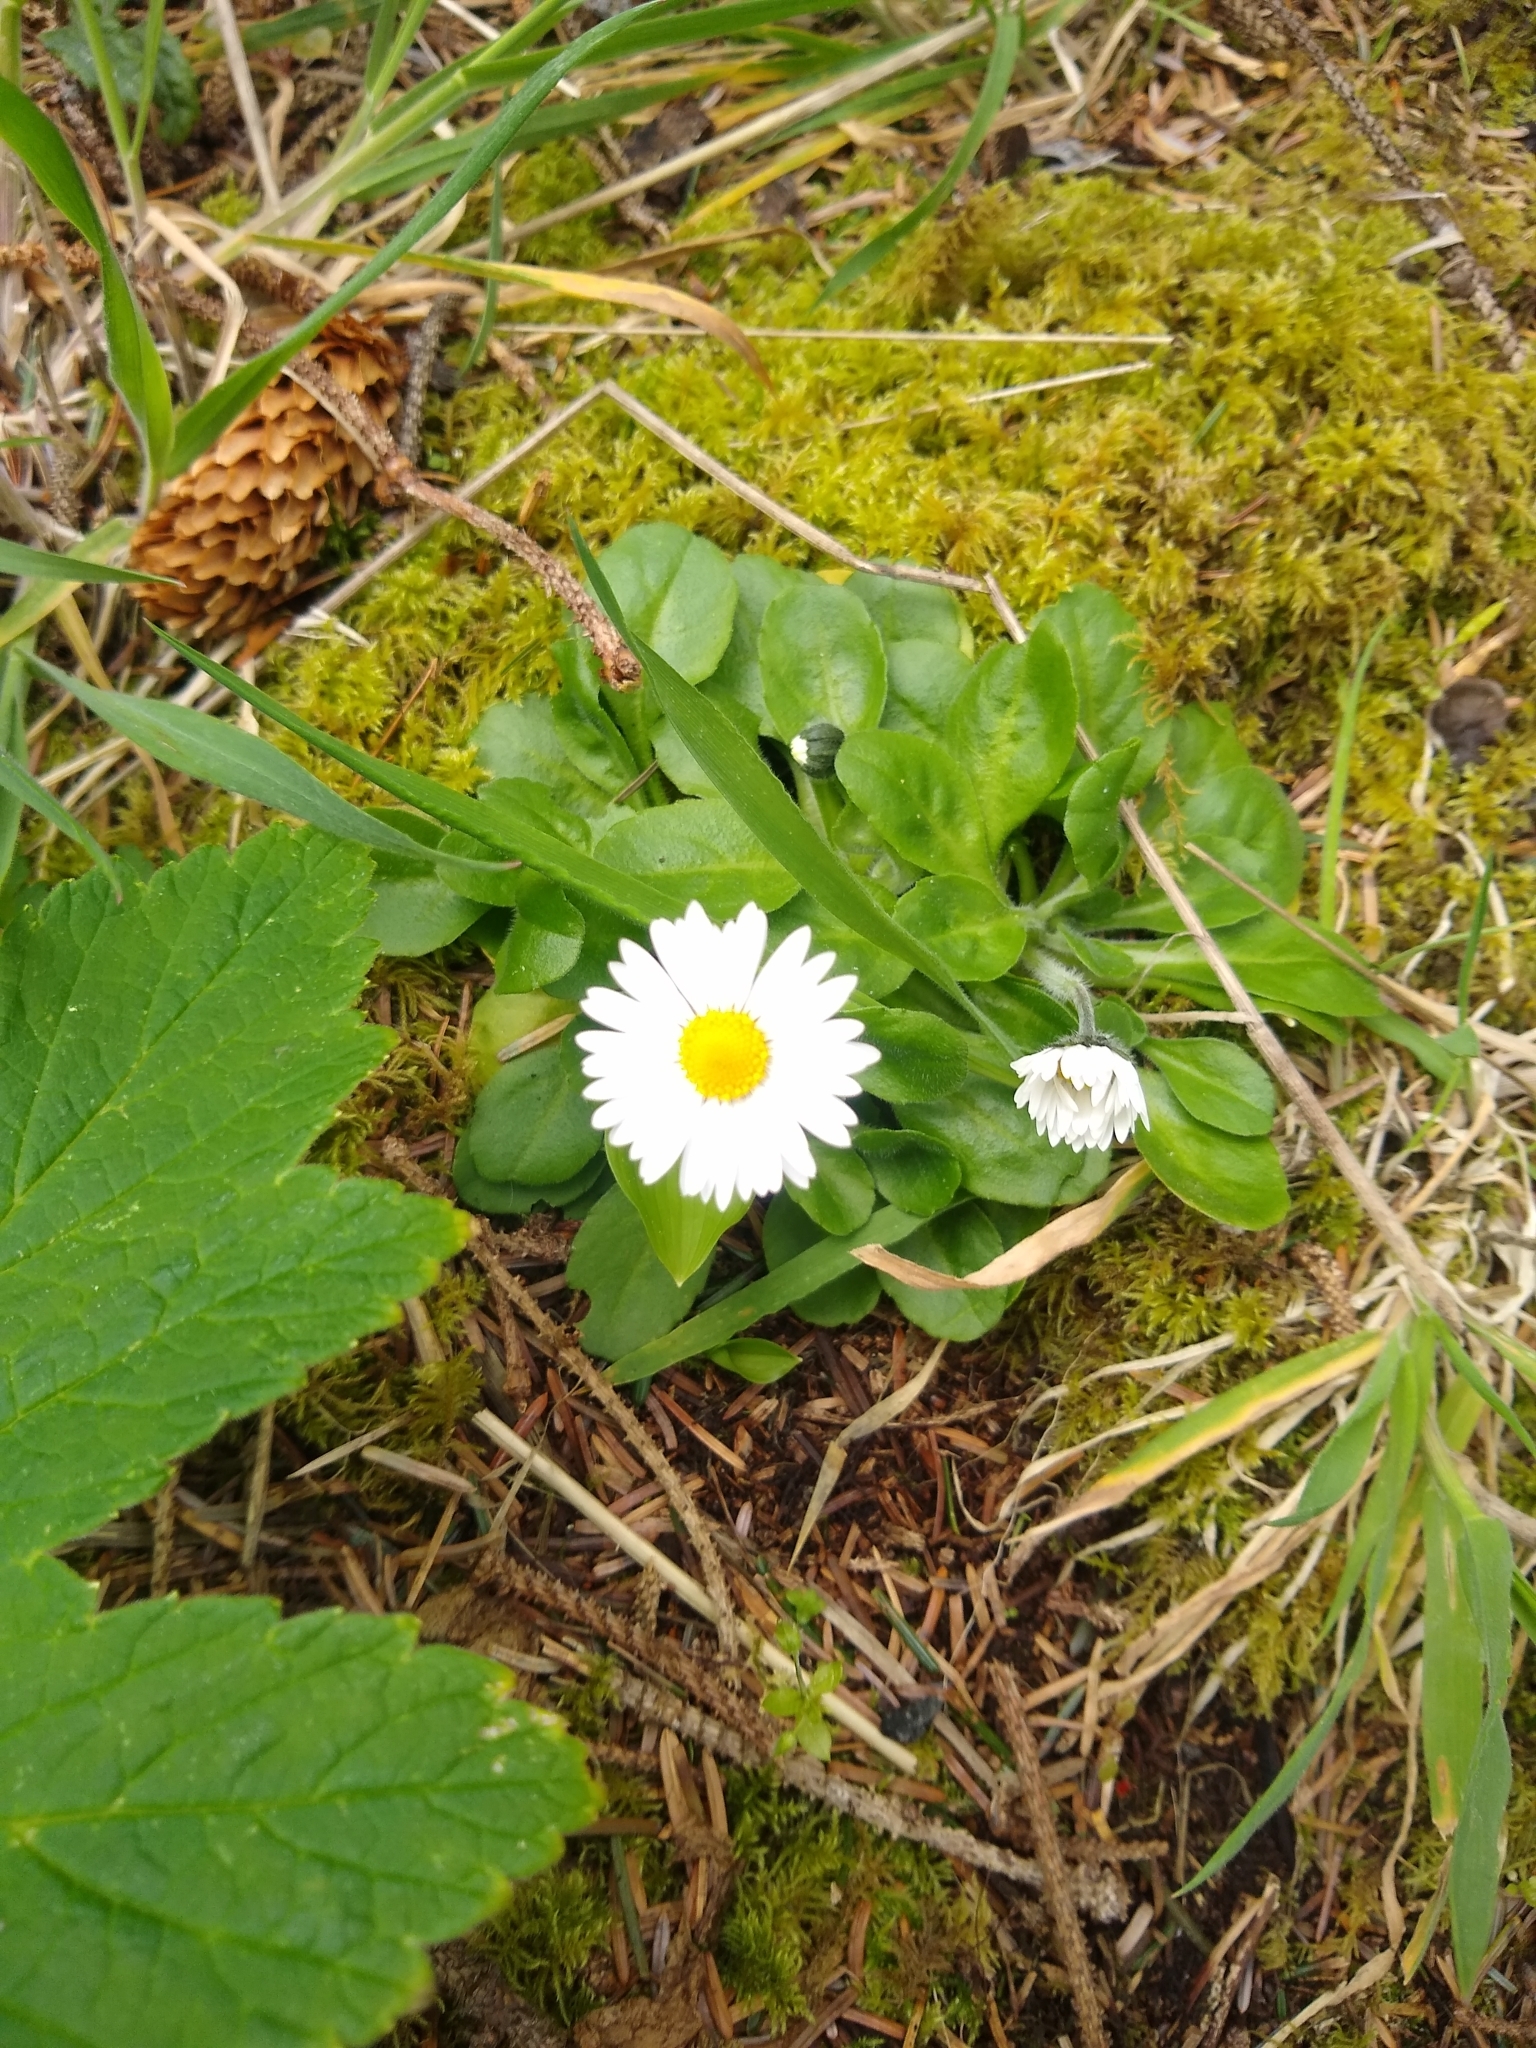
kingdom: Plantae
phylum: Tracheophyta
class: Magnoliopsida
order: Asterales
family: Asteraceae
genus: Bellis
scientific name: Bellis perennis
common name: Lawndaisy
